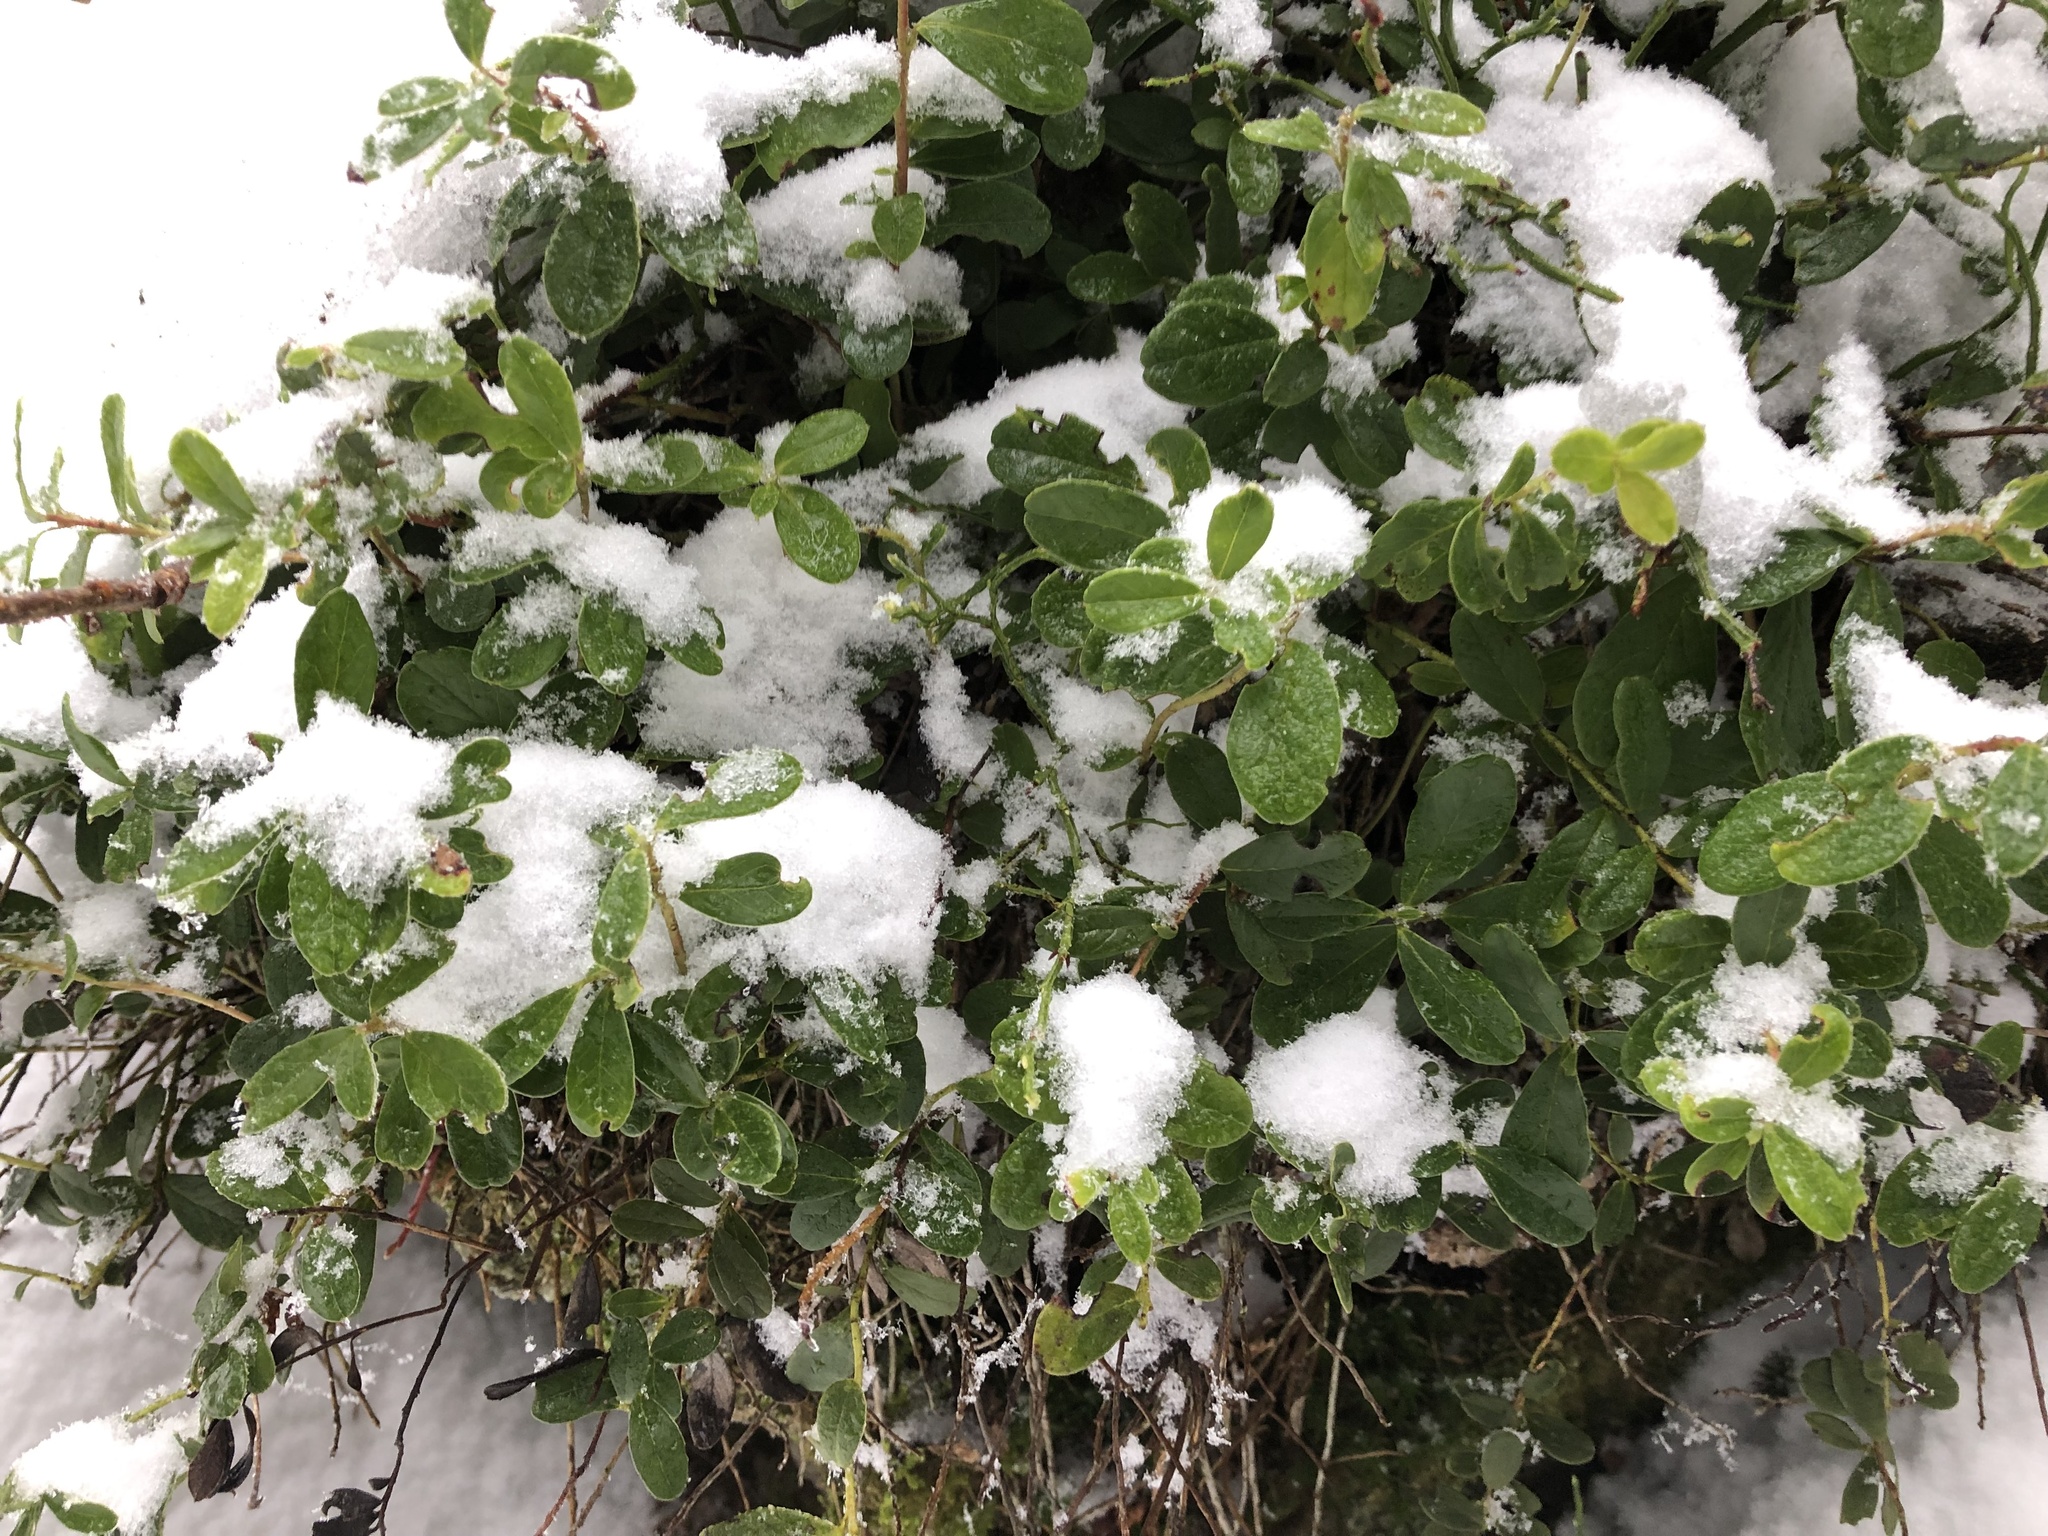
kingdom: Plantae
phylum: Tracheophyta
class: Magnoliopsida
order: Ericales
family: Ericaceae
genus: Vaccinium
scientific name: Vaccinium vitis-idaea
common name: Cowberry
